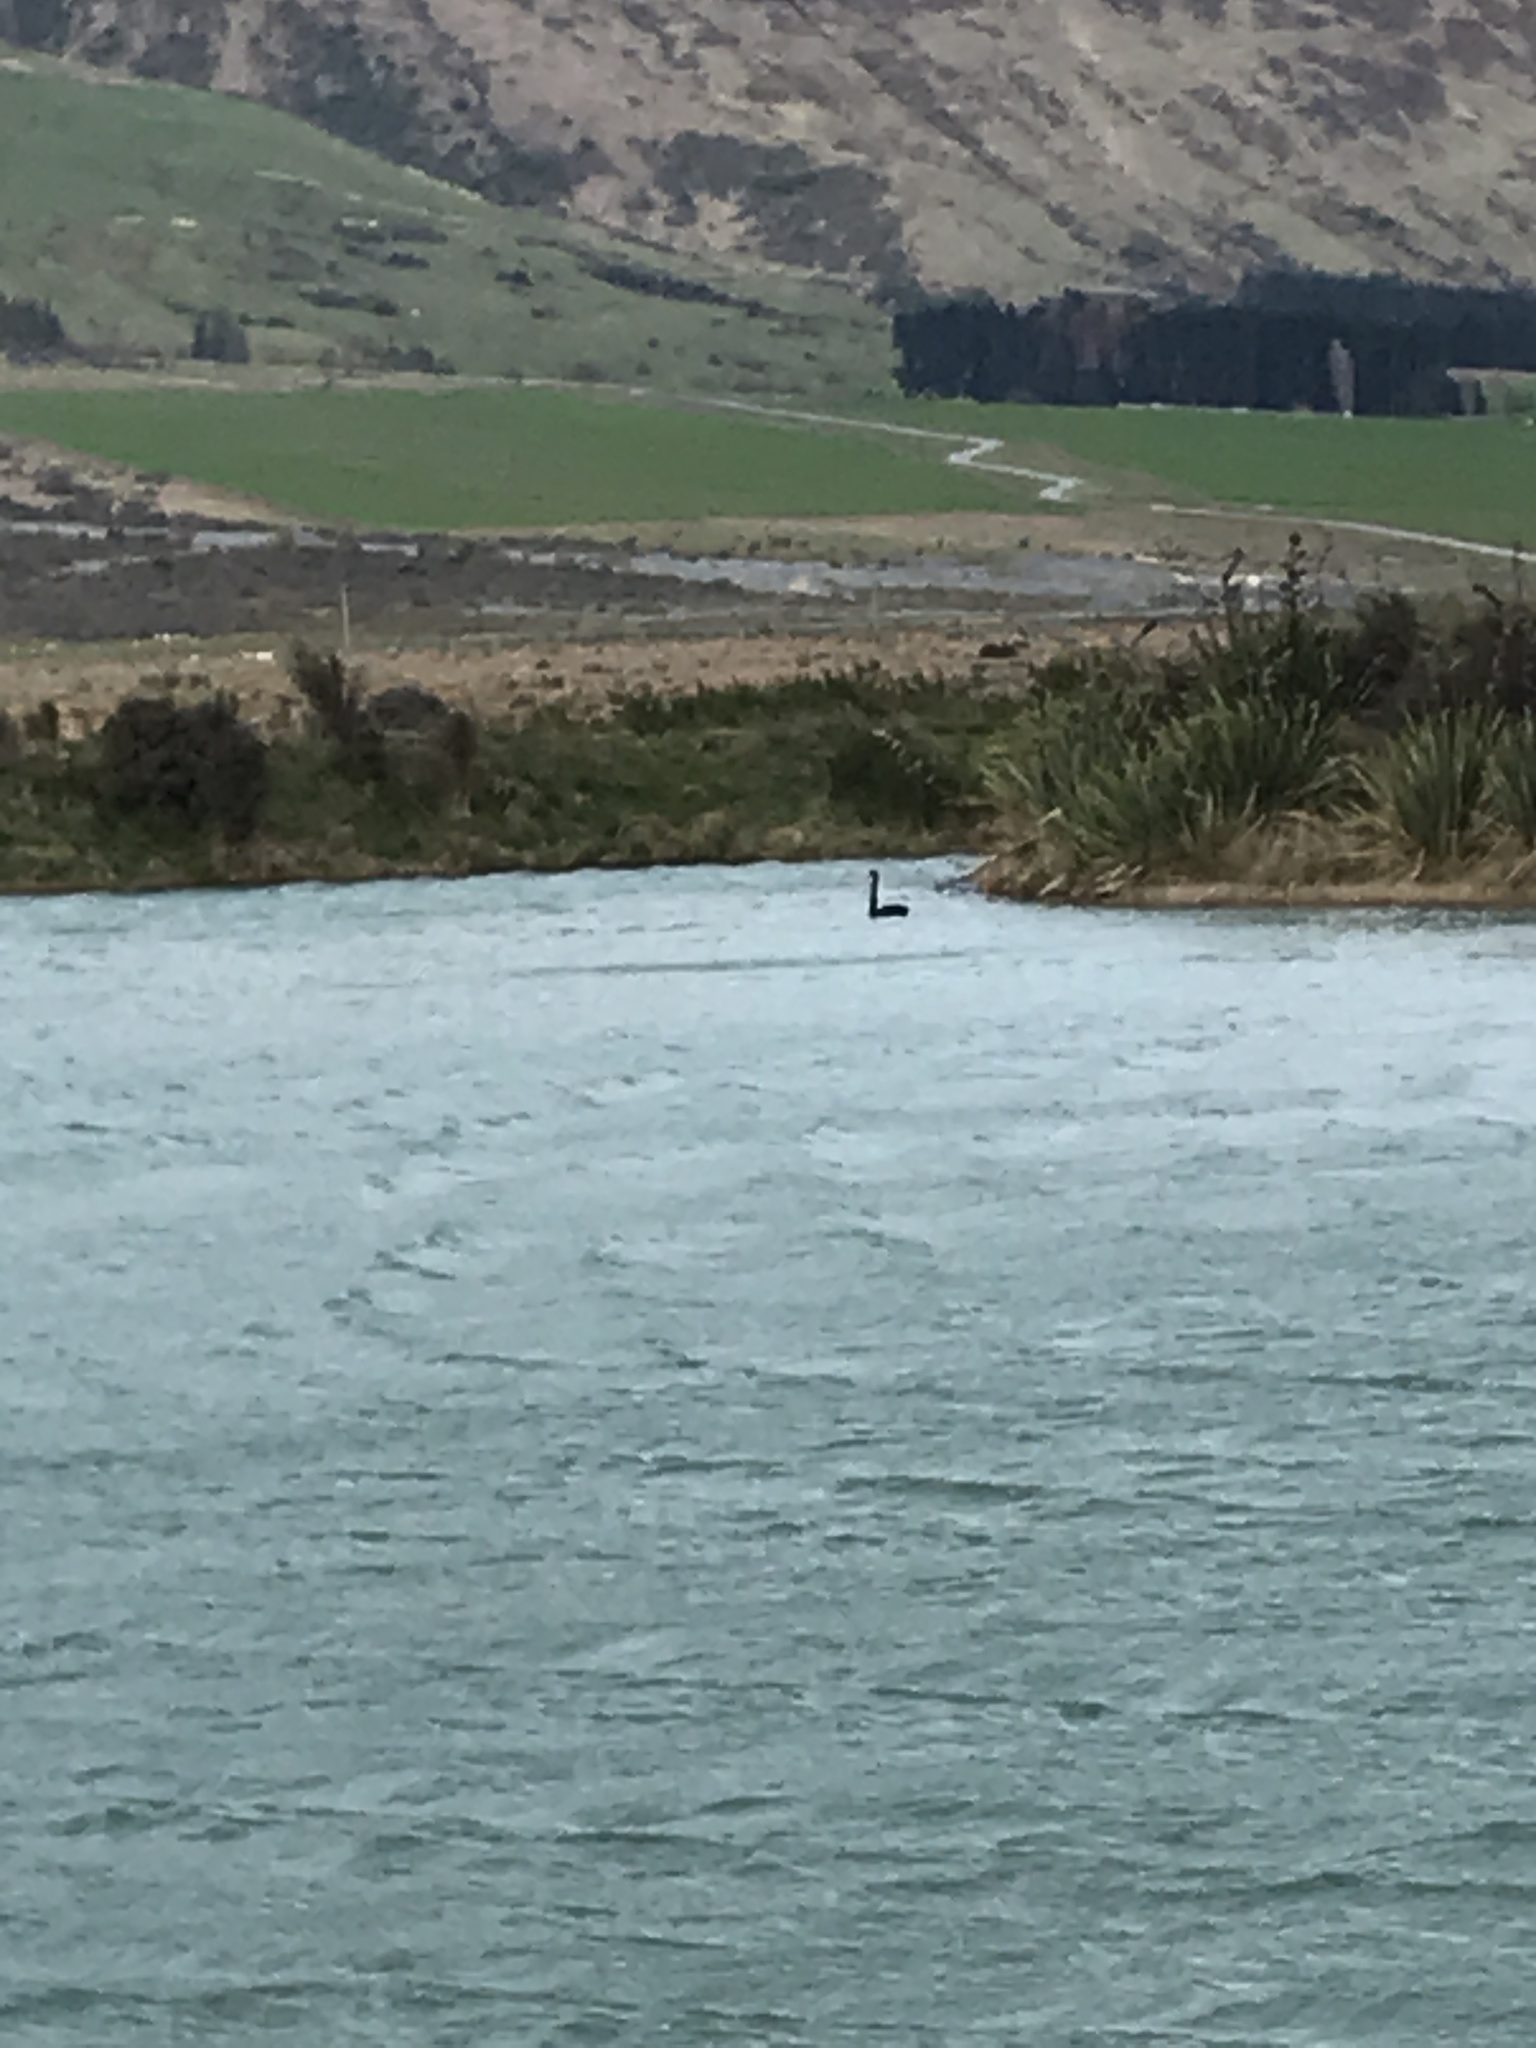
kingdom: Animalia
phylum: Chordata
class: Aves
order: Anseriformes
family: Anatidae
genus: Cygnus
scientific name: Cygnus atratus
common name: Black swan
